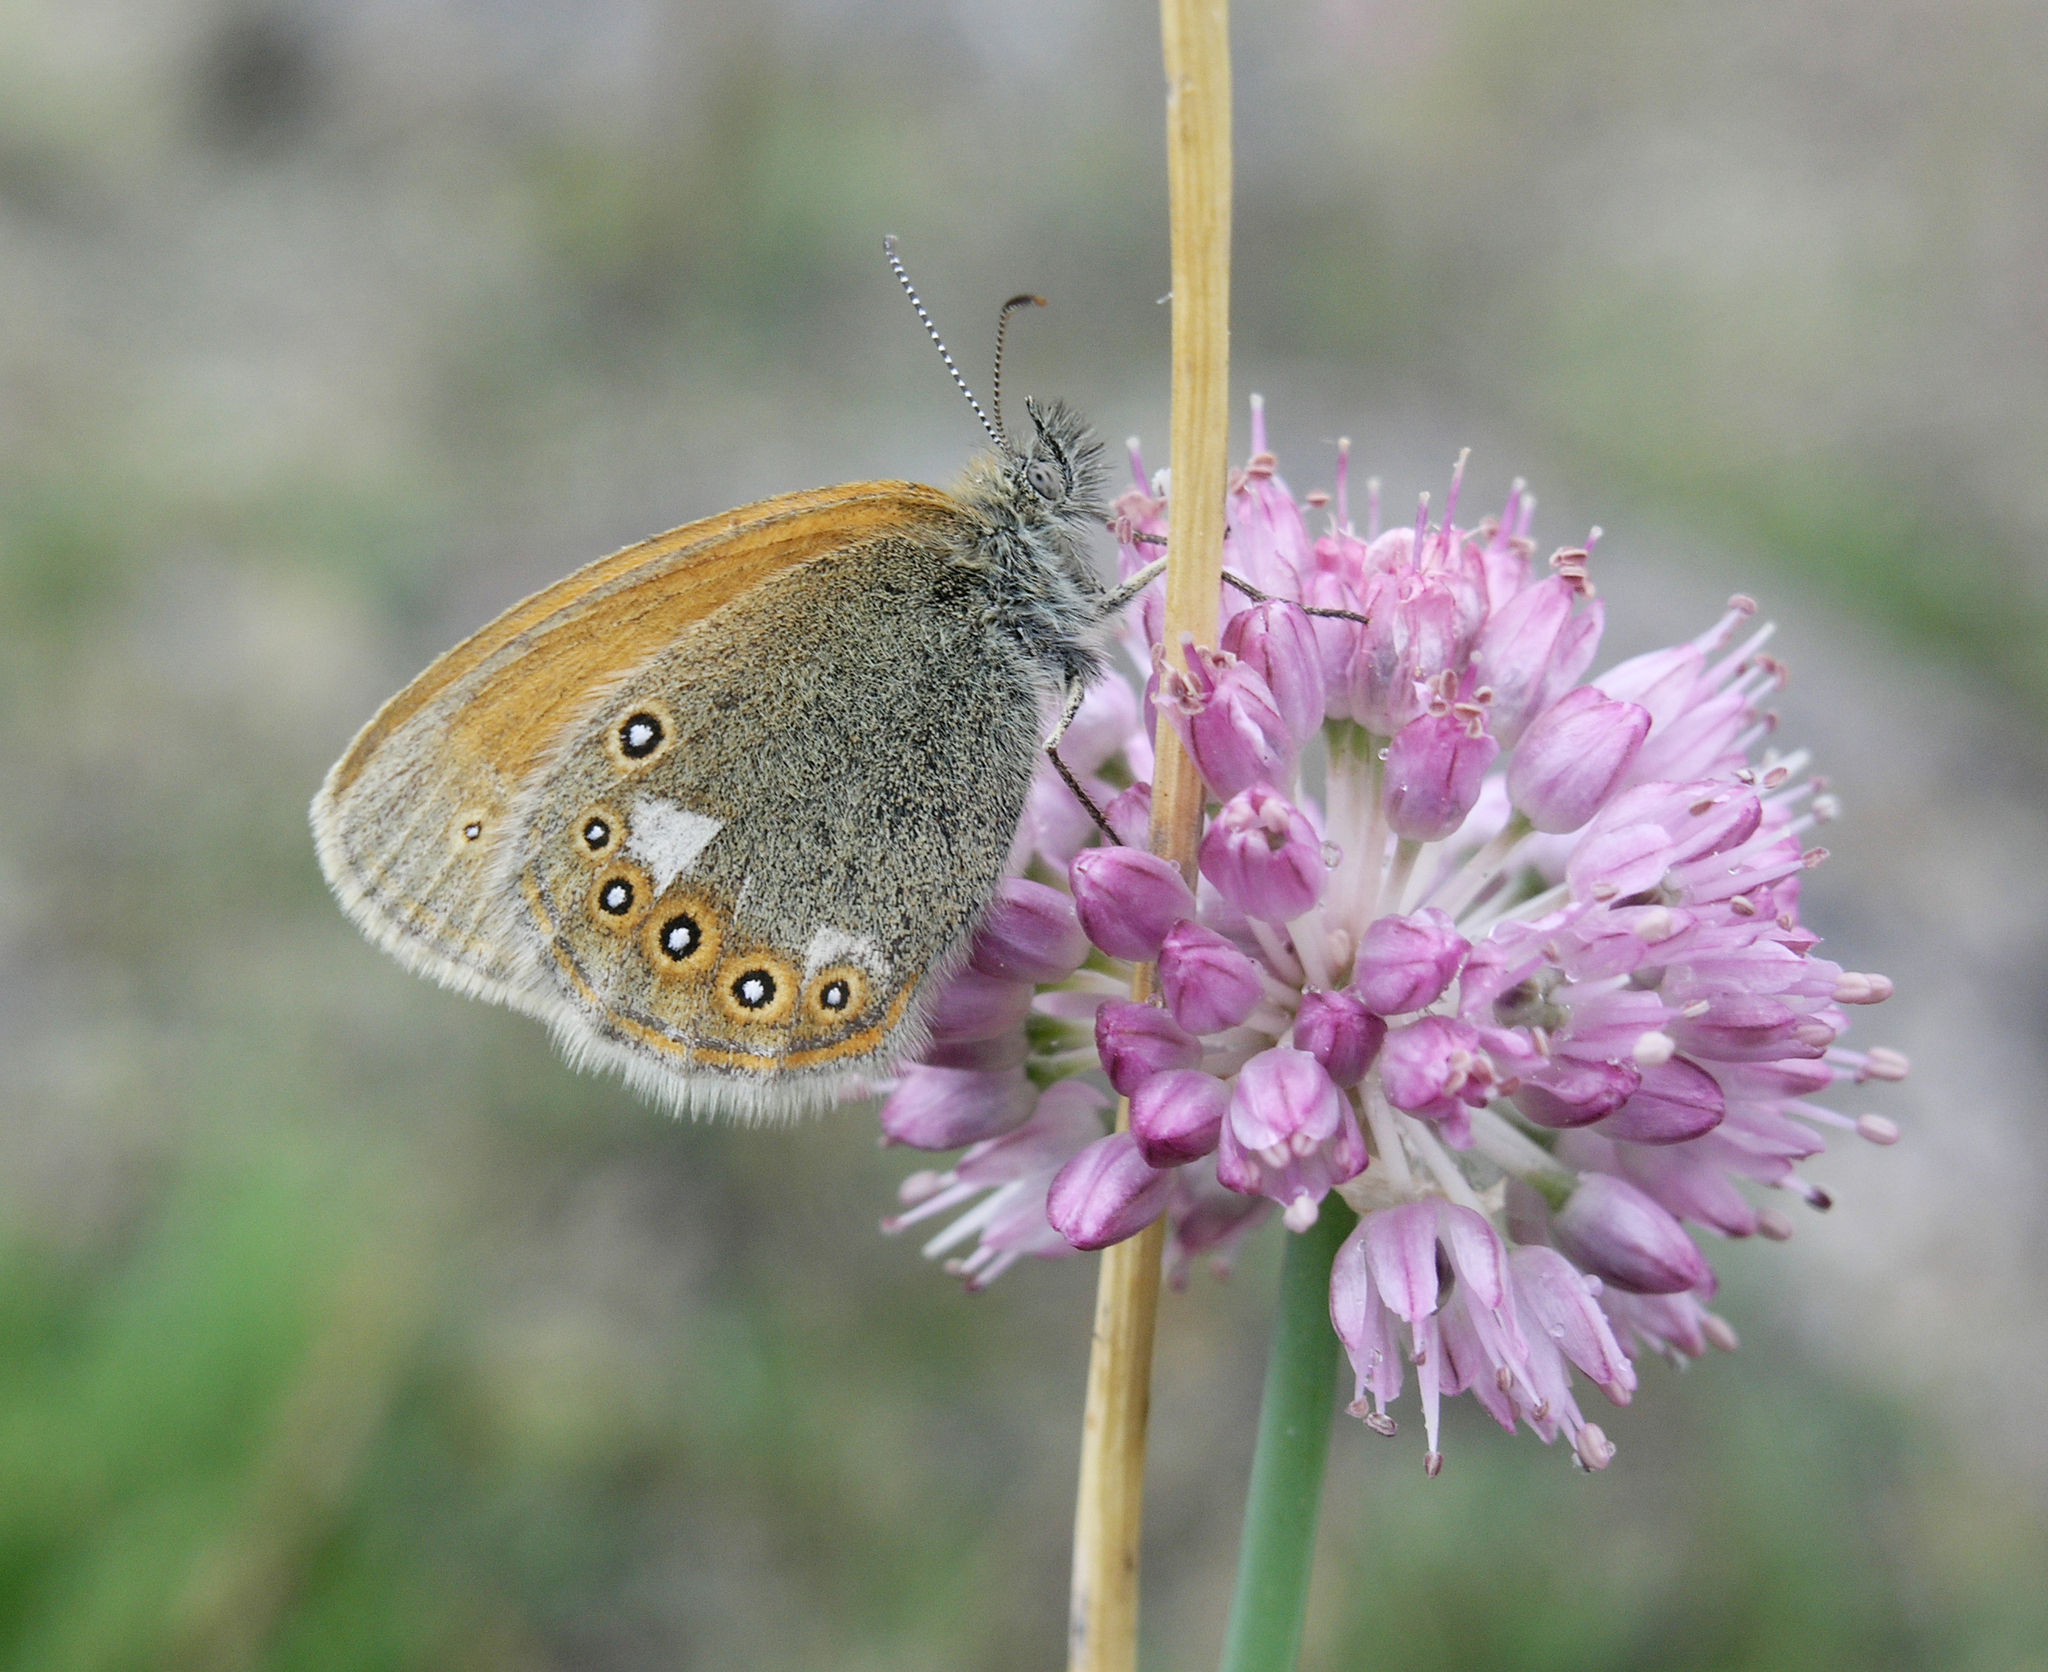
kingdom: Animalia
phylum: Arthropoda
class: Insecta
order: Lepidoptera
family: Nymphalidae
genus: Coenonympha
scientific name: Coenonympha iphis
